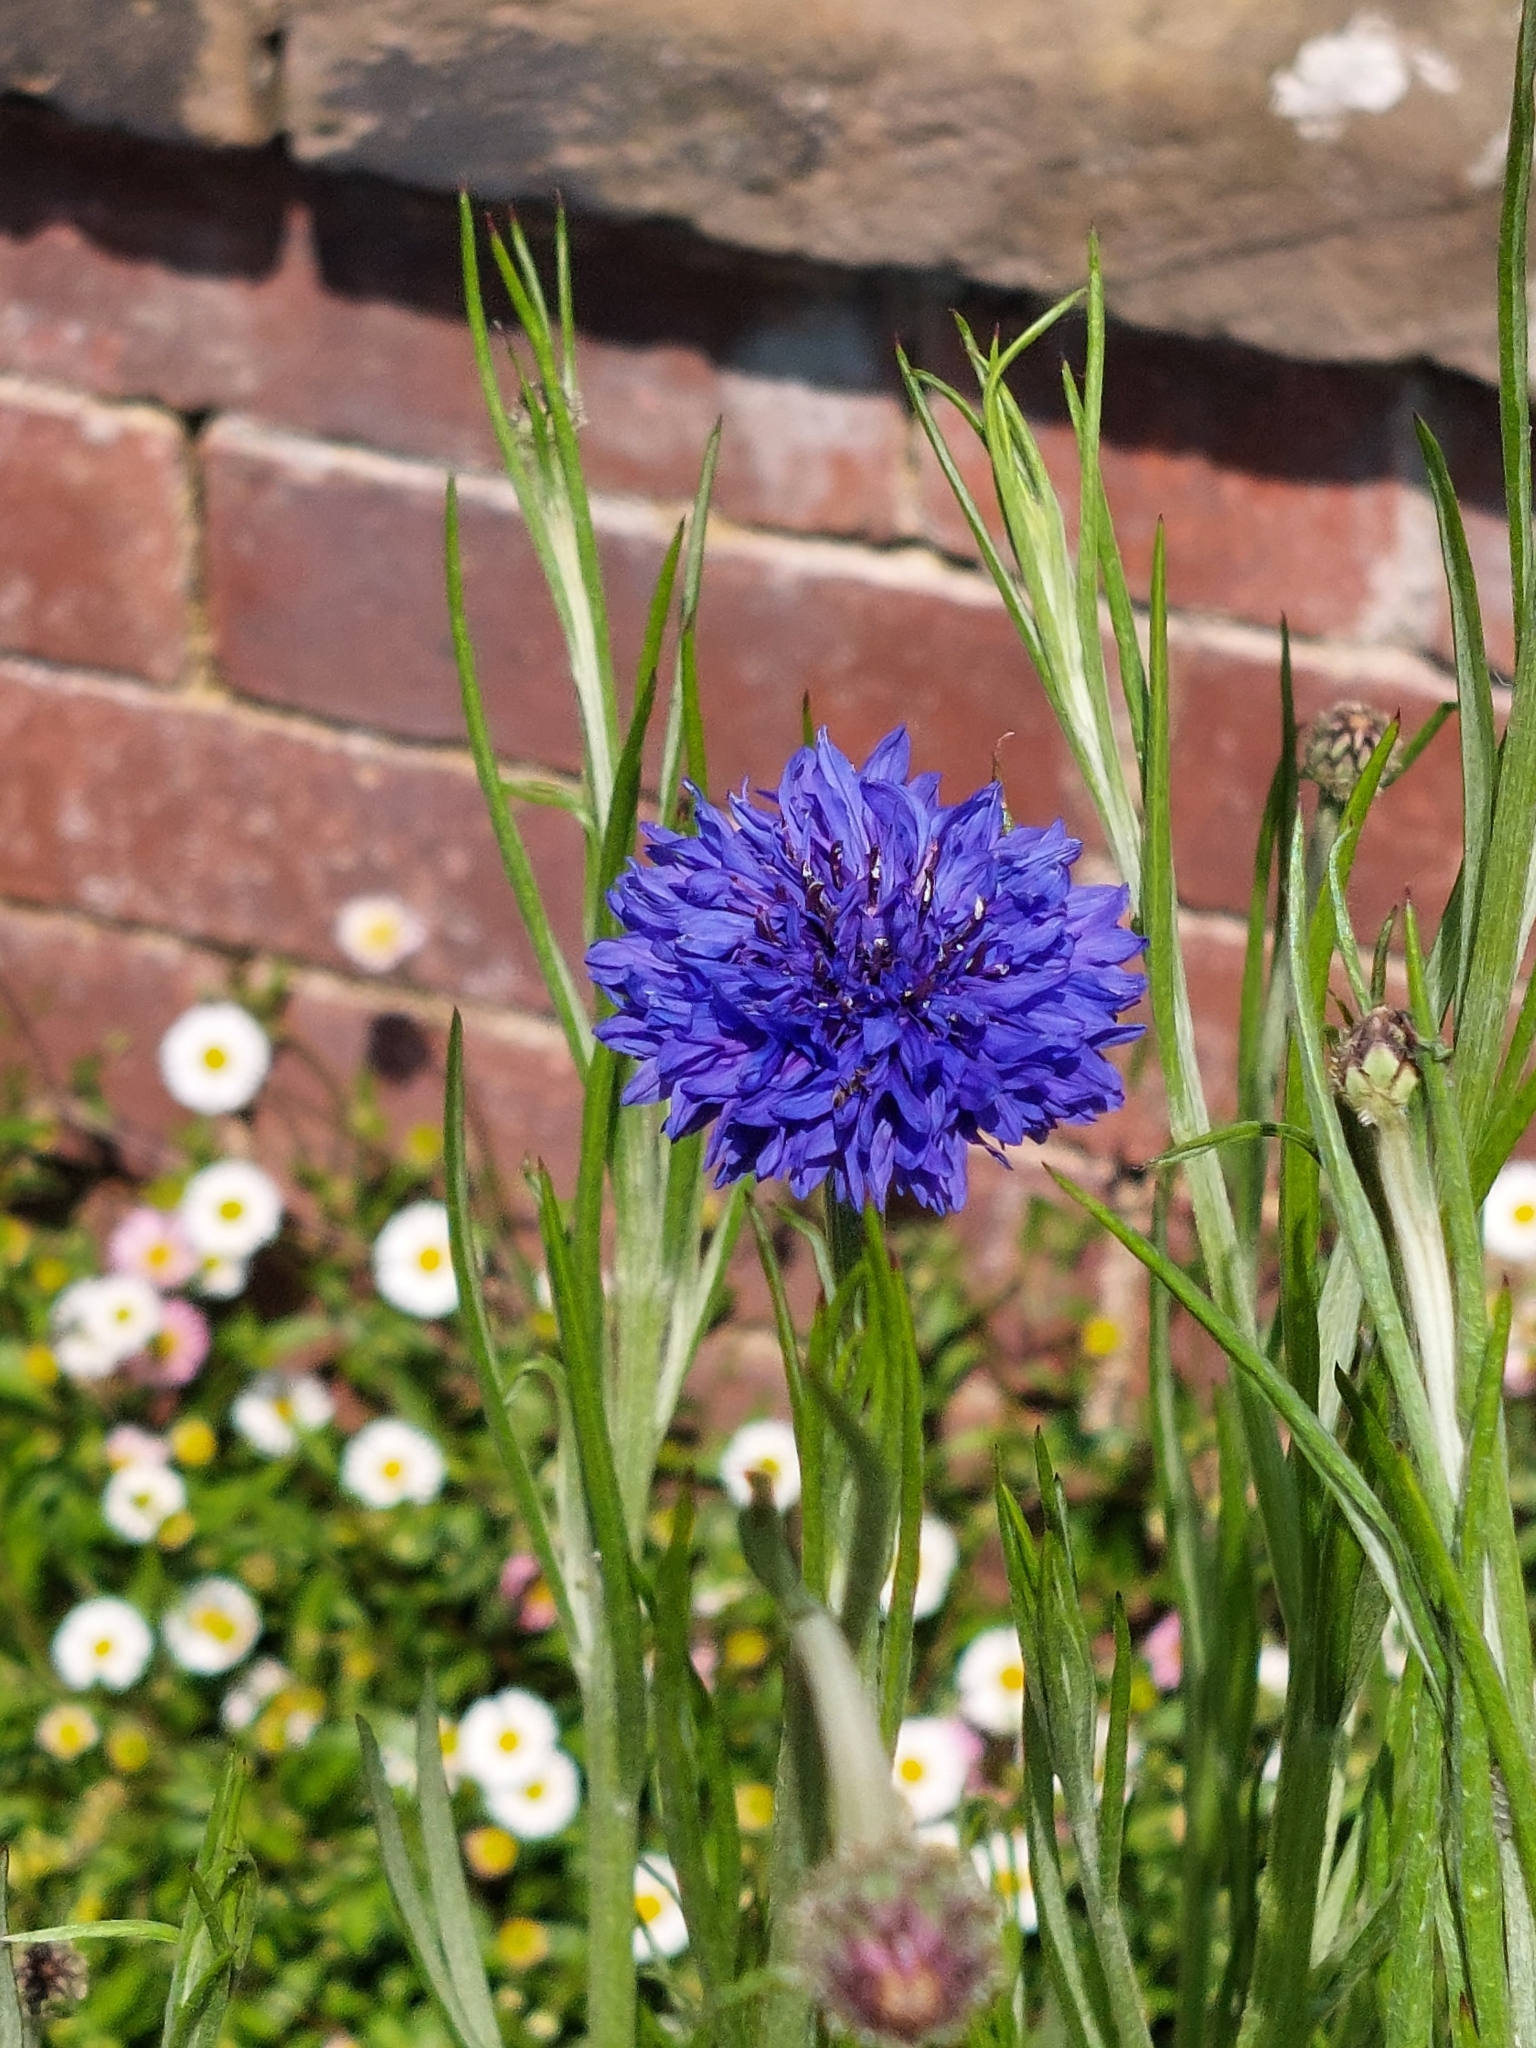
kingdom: Plantae
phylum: Tracheophyta
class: Magnoliopsida
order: Asterales
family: Asteraceae
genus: Centaurea
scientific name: Centaurea cyanus
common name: Cornflower
